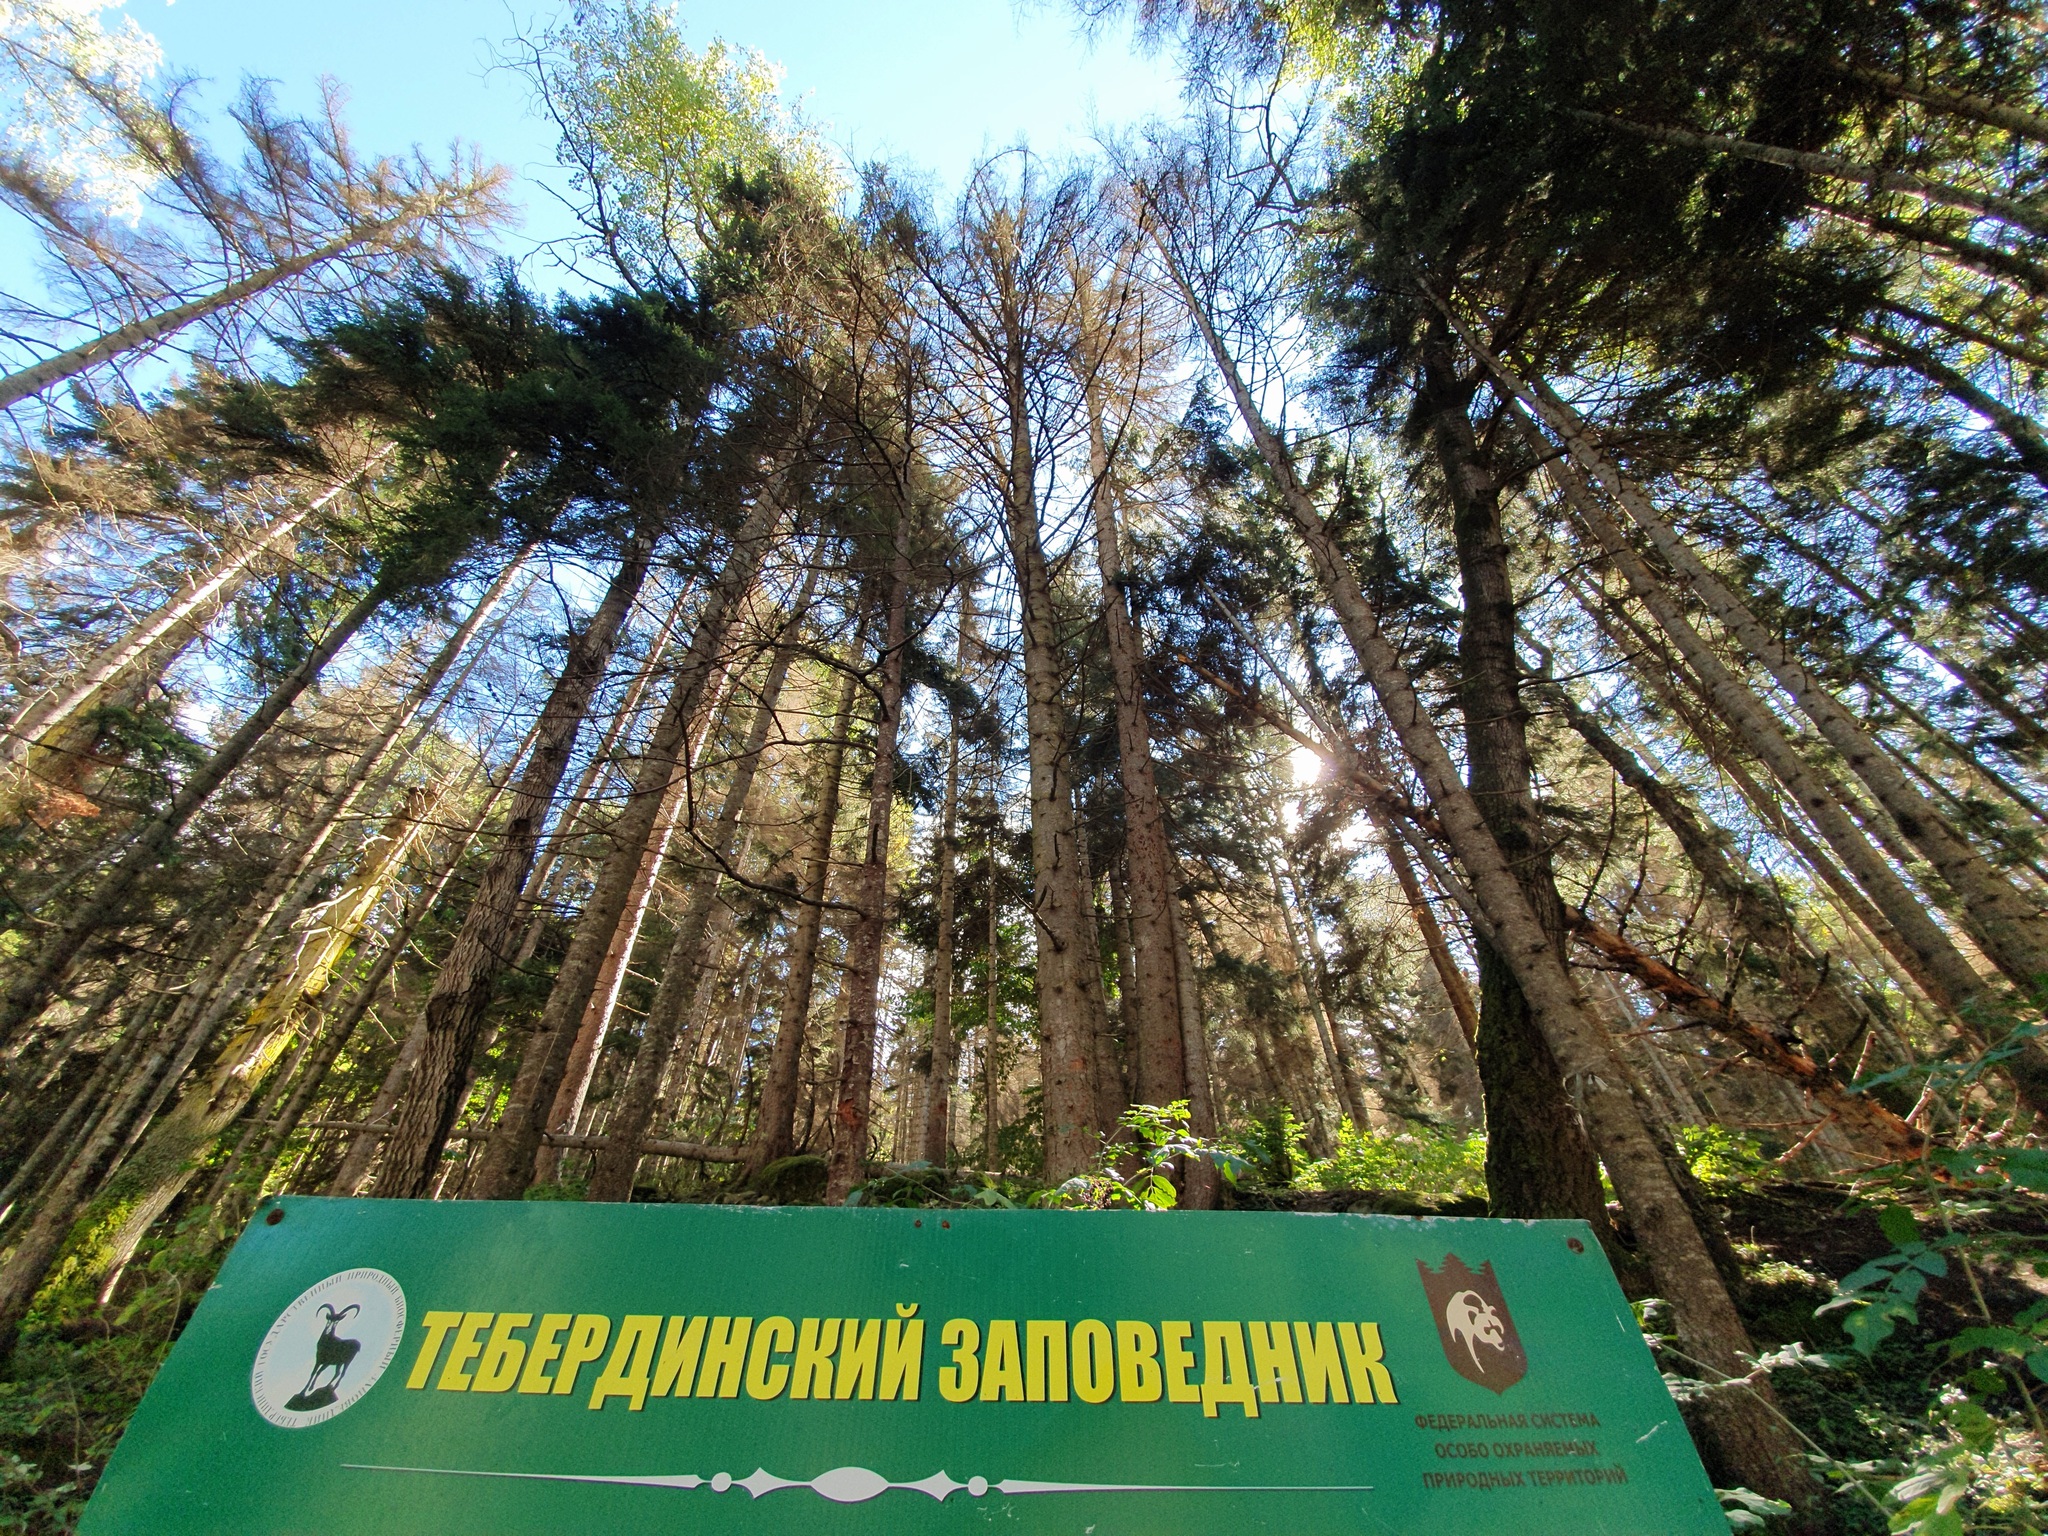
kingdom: Plantae
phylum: Tracheophyta
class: Pinopsida
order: Pinales
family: Pinaceae
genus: Pinus
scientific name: Pinus sylvestris
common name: Scots pine
